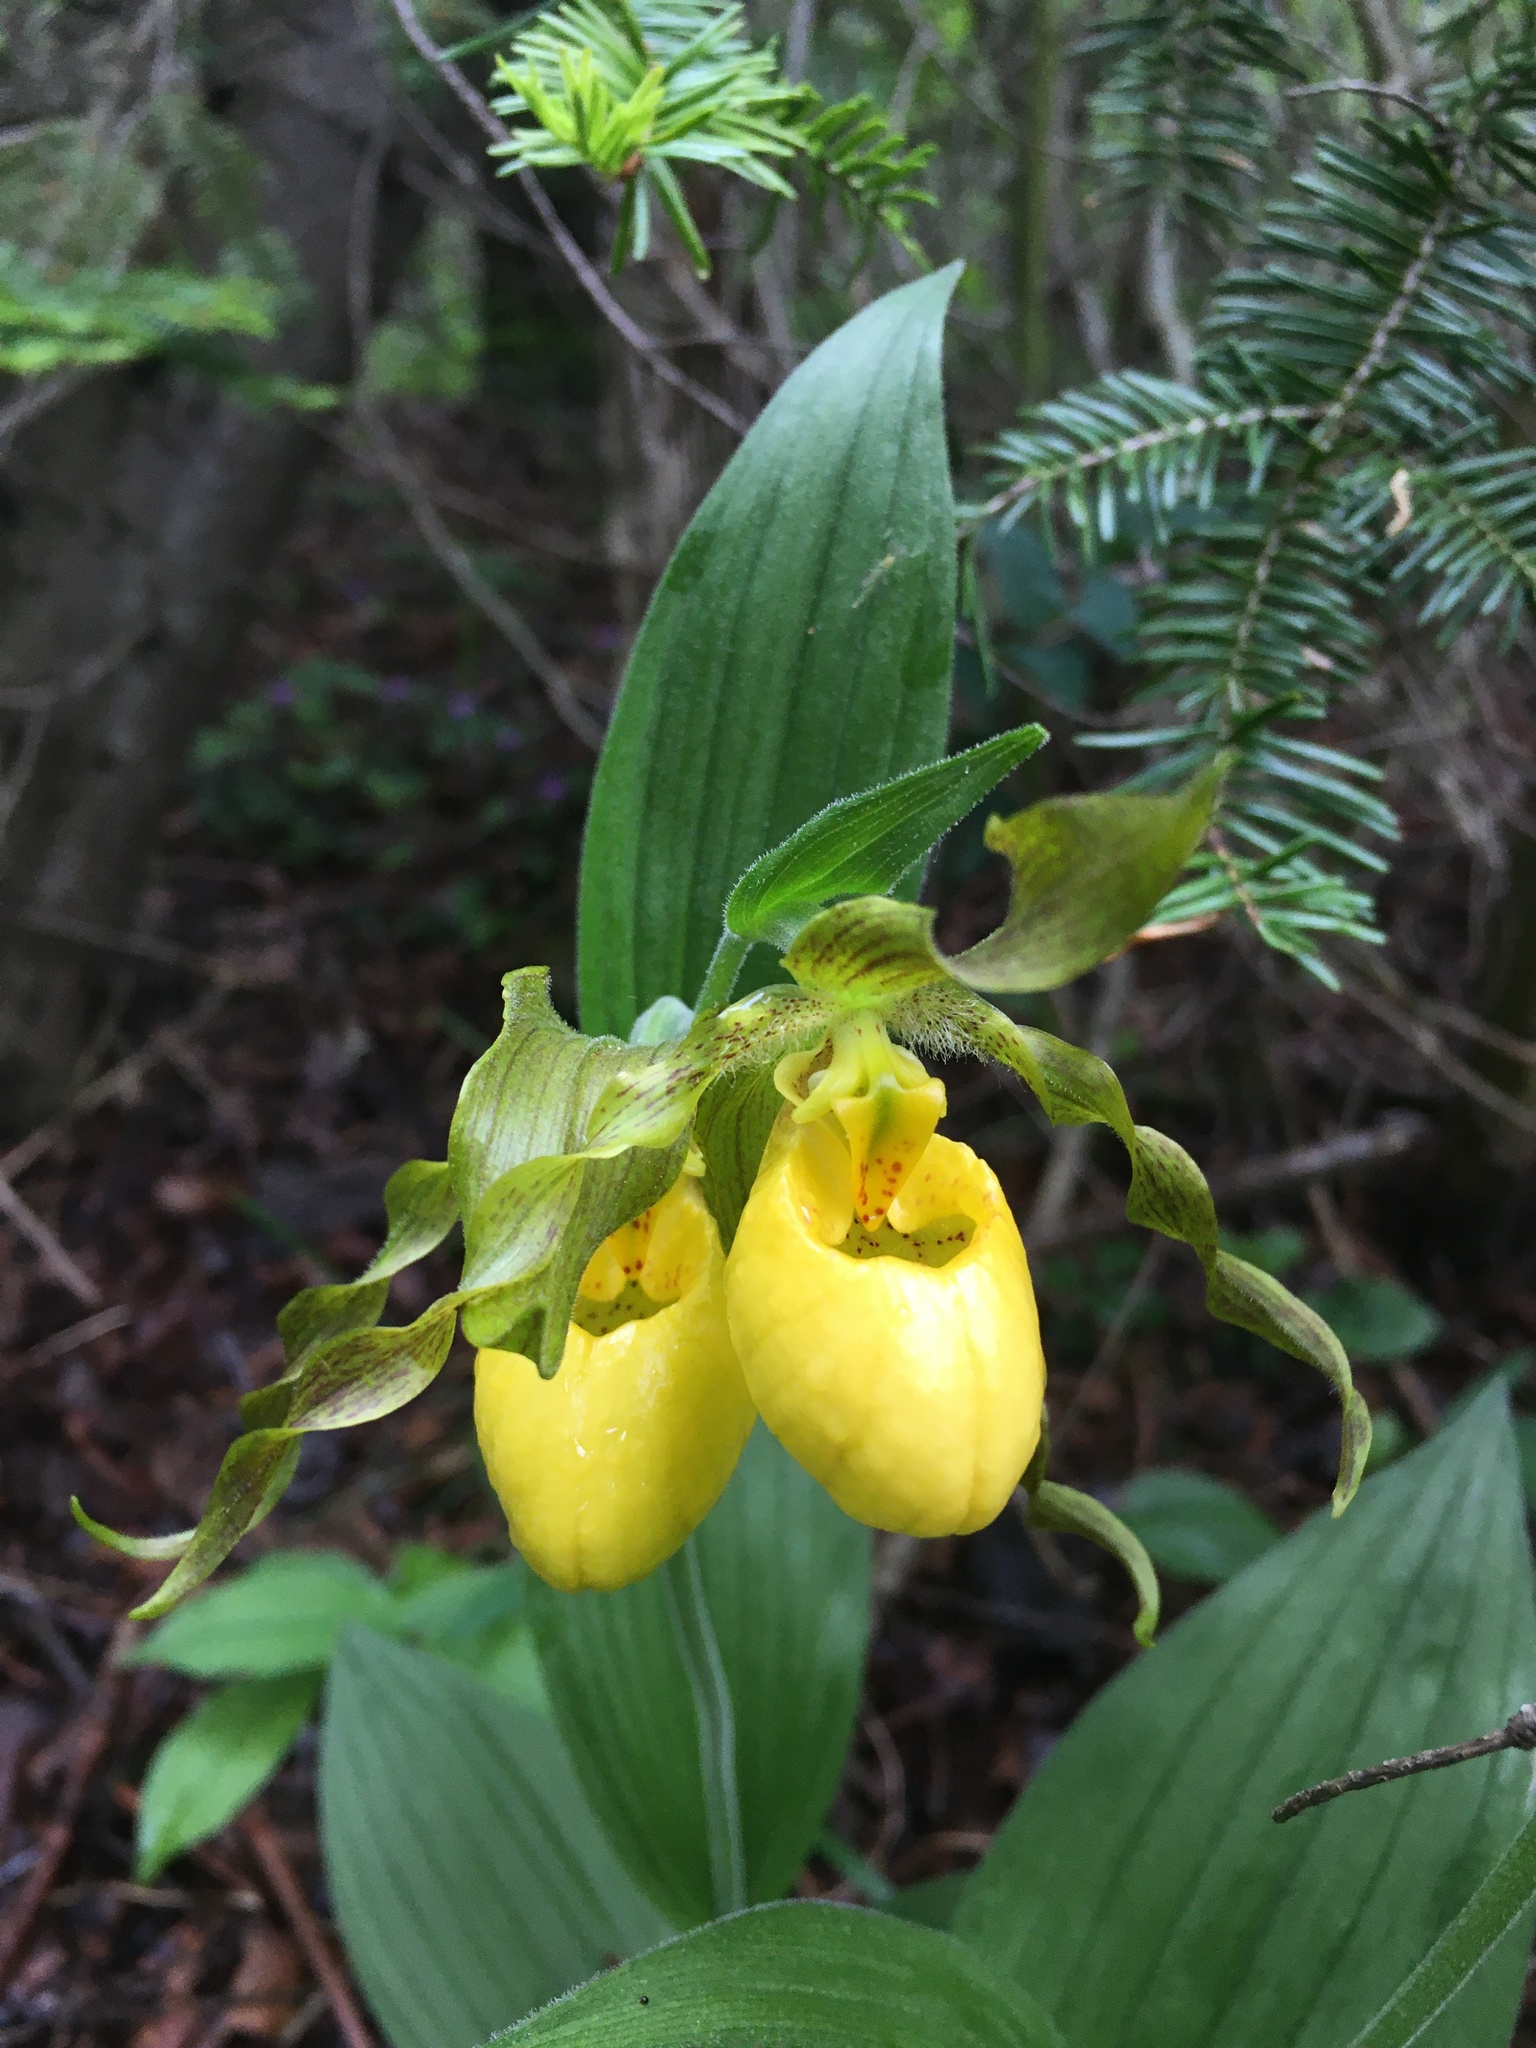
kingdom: Plantae
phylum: Tracheophyta
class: Liliopsida
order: Asparagales
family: Orchidaceae
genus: Cypripedium
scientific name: Cypripedium parviflorum
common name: American yellow lady's-slipper
